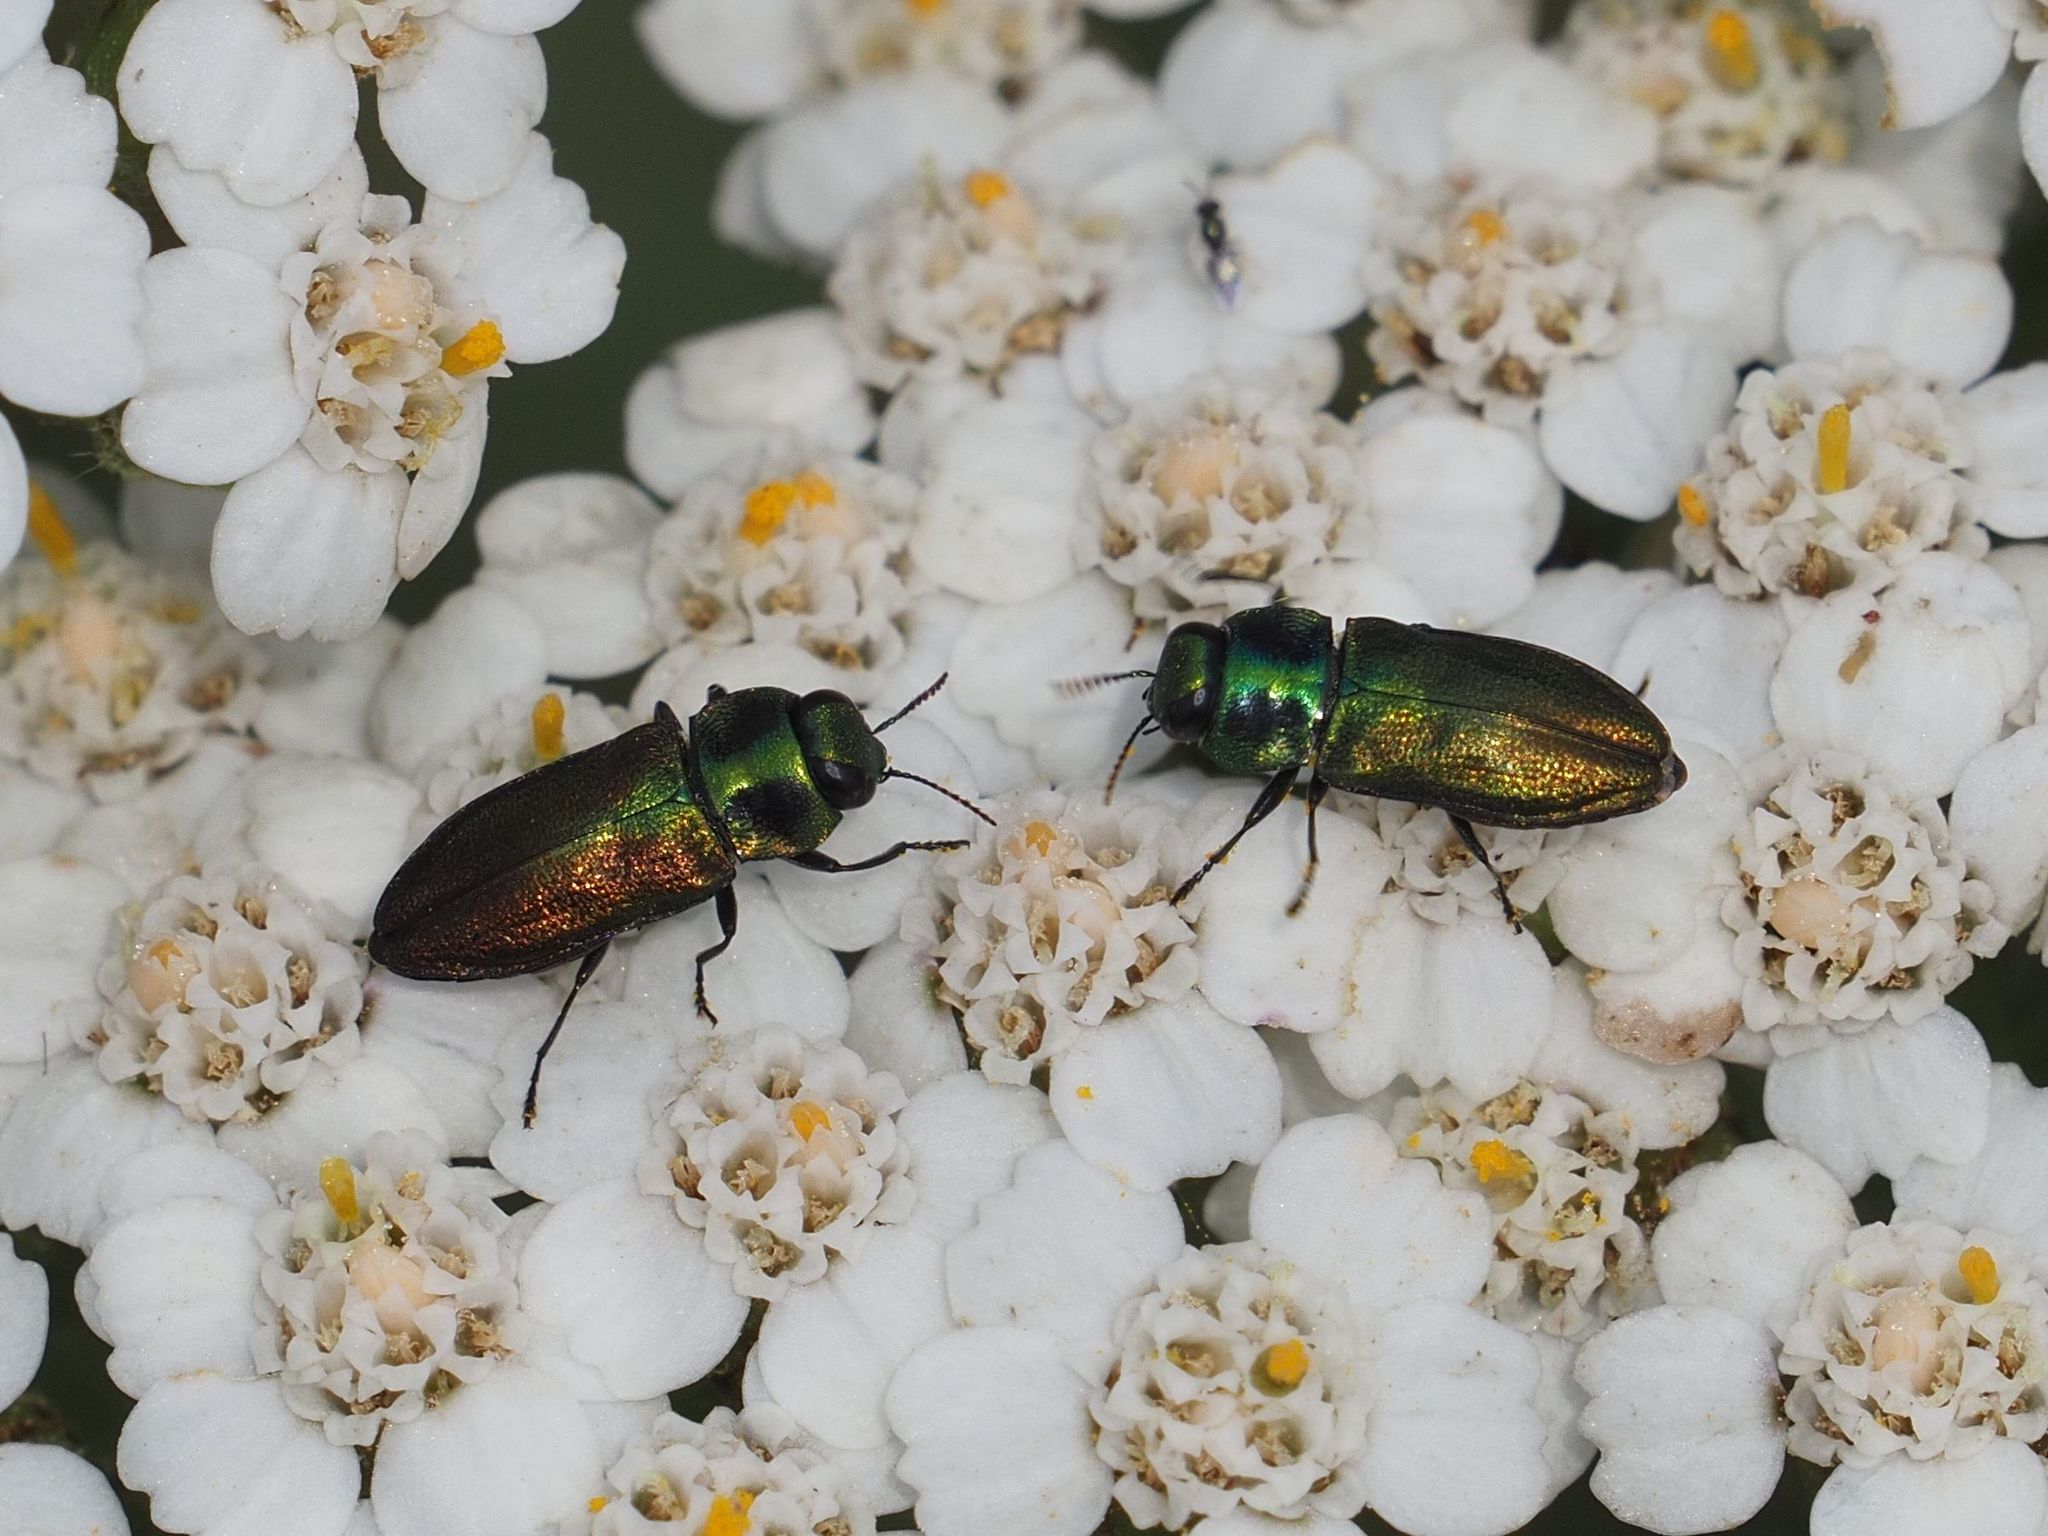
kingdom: Animalia
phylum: Arthropoda
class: Insecta
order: Coleoptera
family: Buprestidae
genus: Anthaxia
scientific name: Anthaxia podolica
